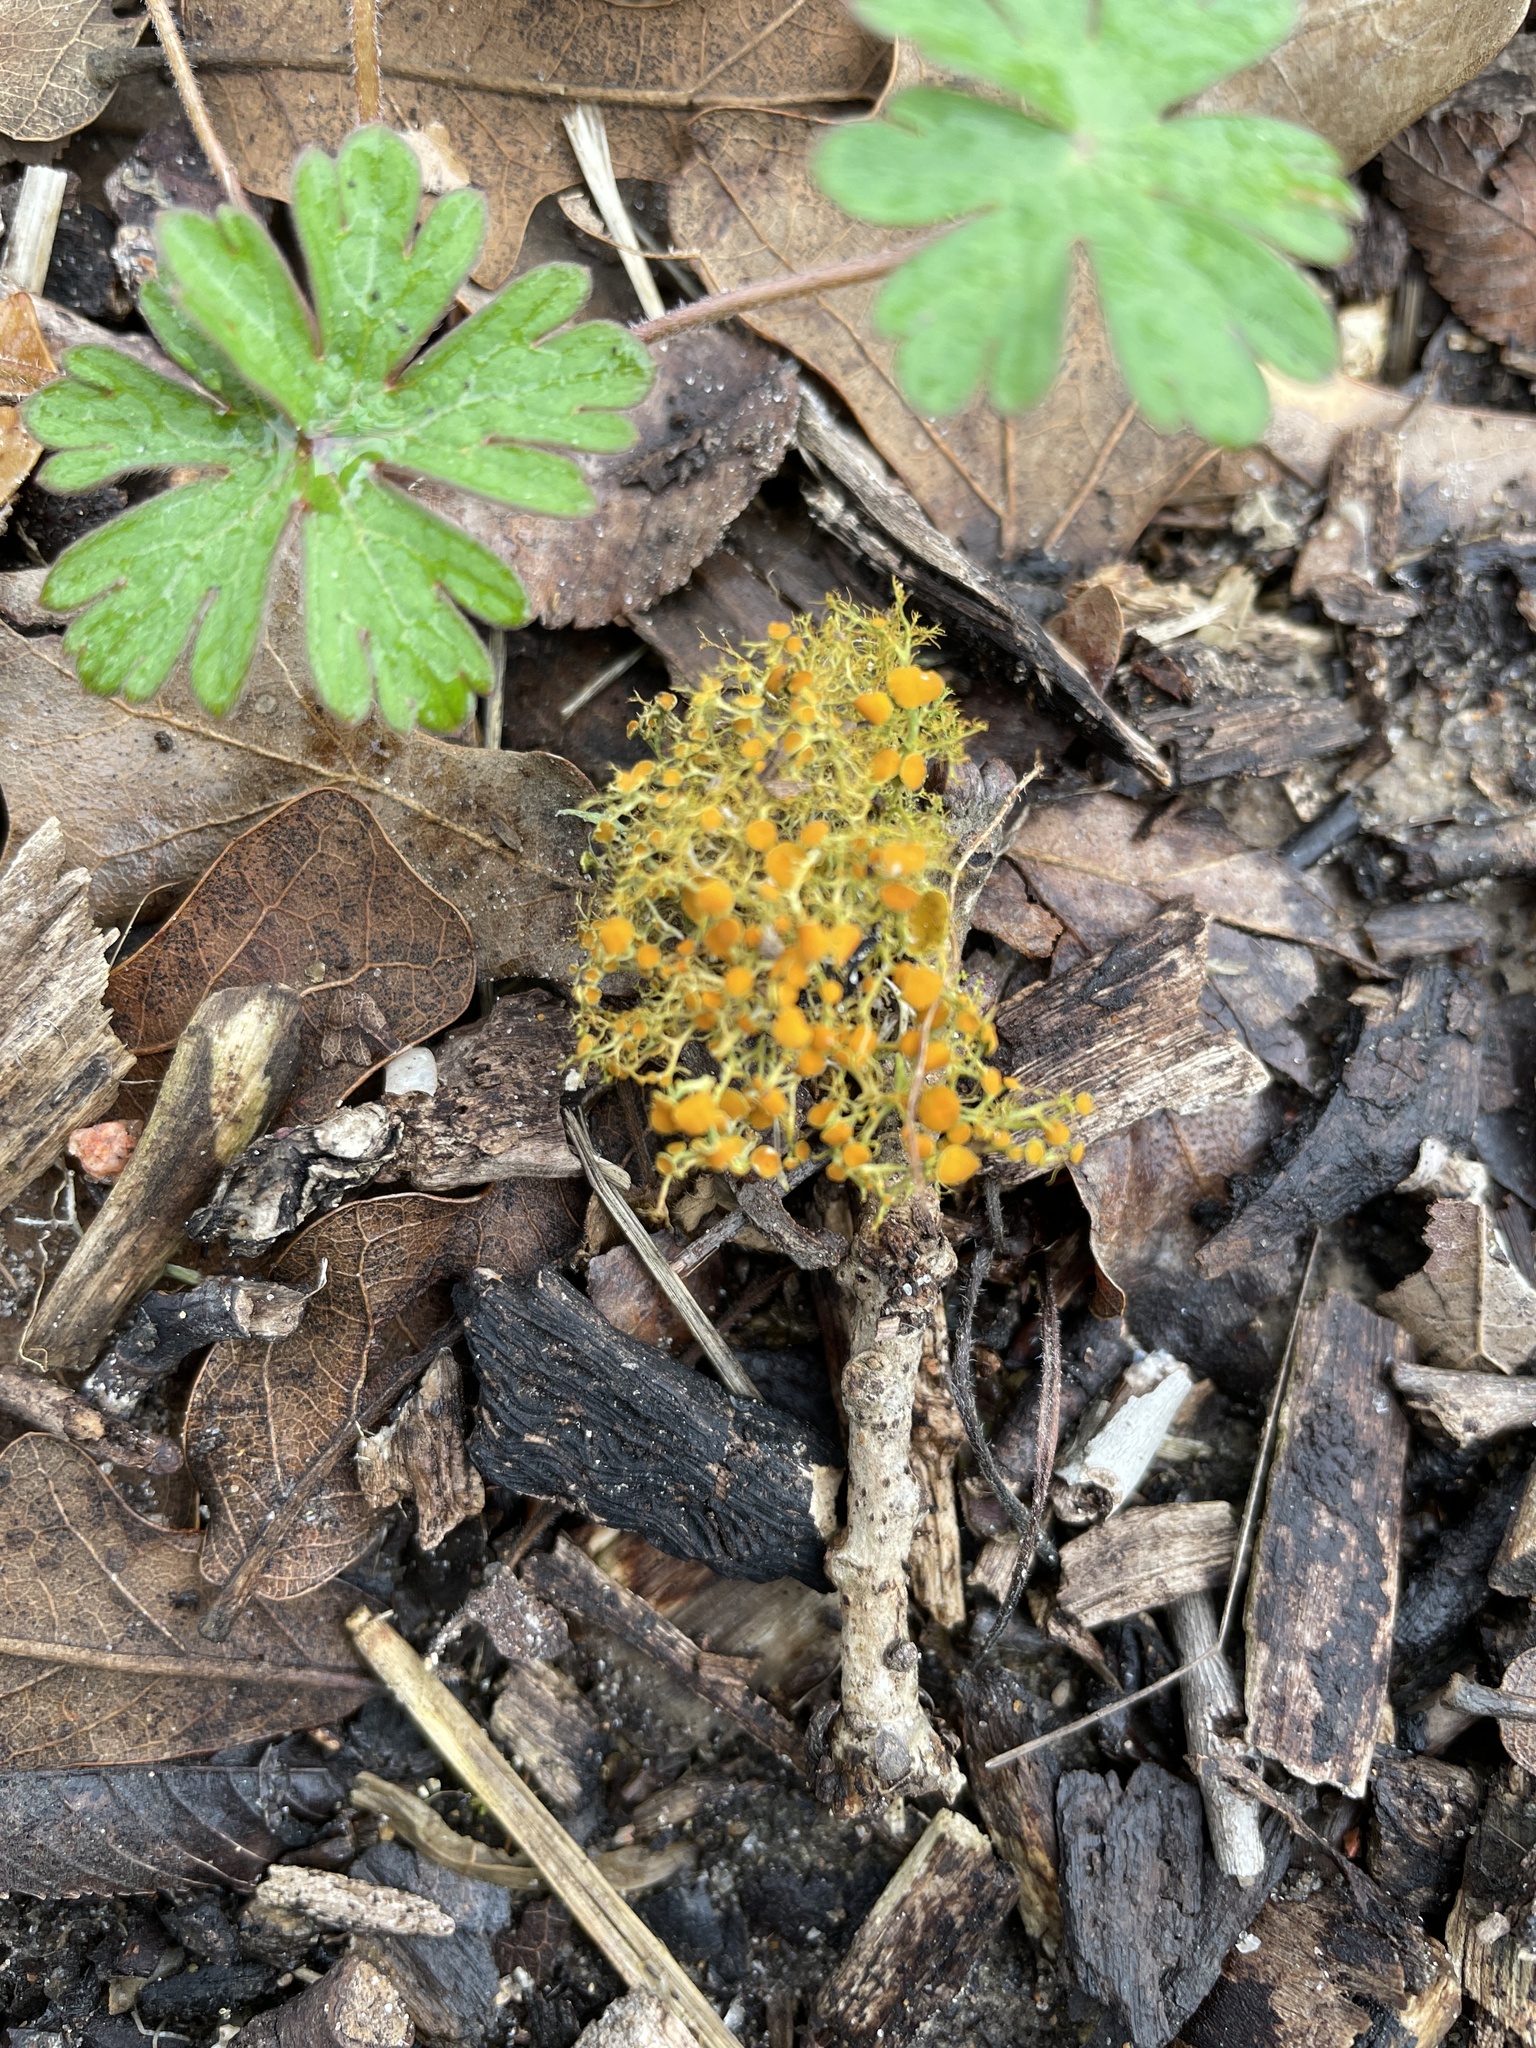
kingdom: Fungi
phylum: Ascomycota
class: Lecanoromycetes
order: Teloschistales
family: Teloschistaceae
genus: Teloschistes
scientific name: Teloschistes exilis
